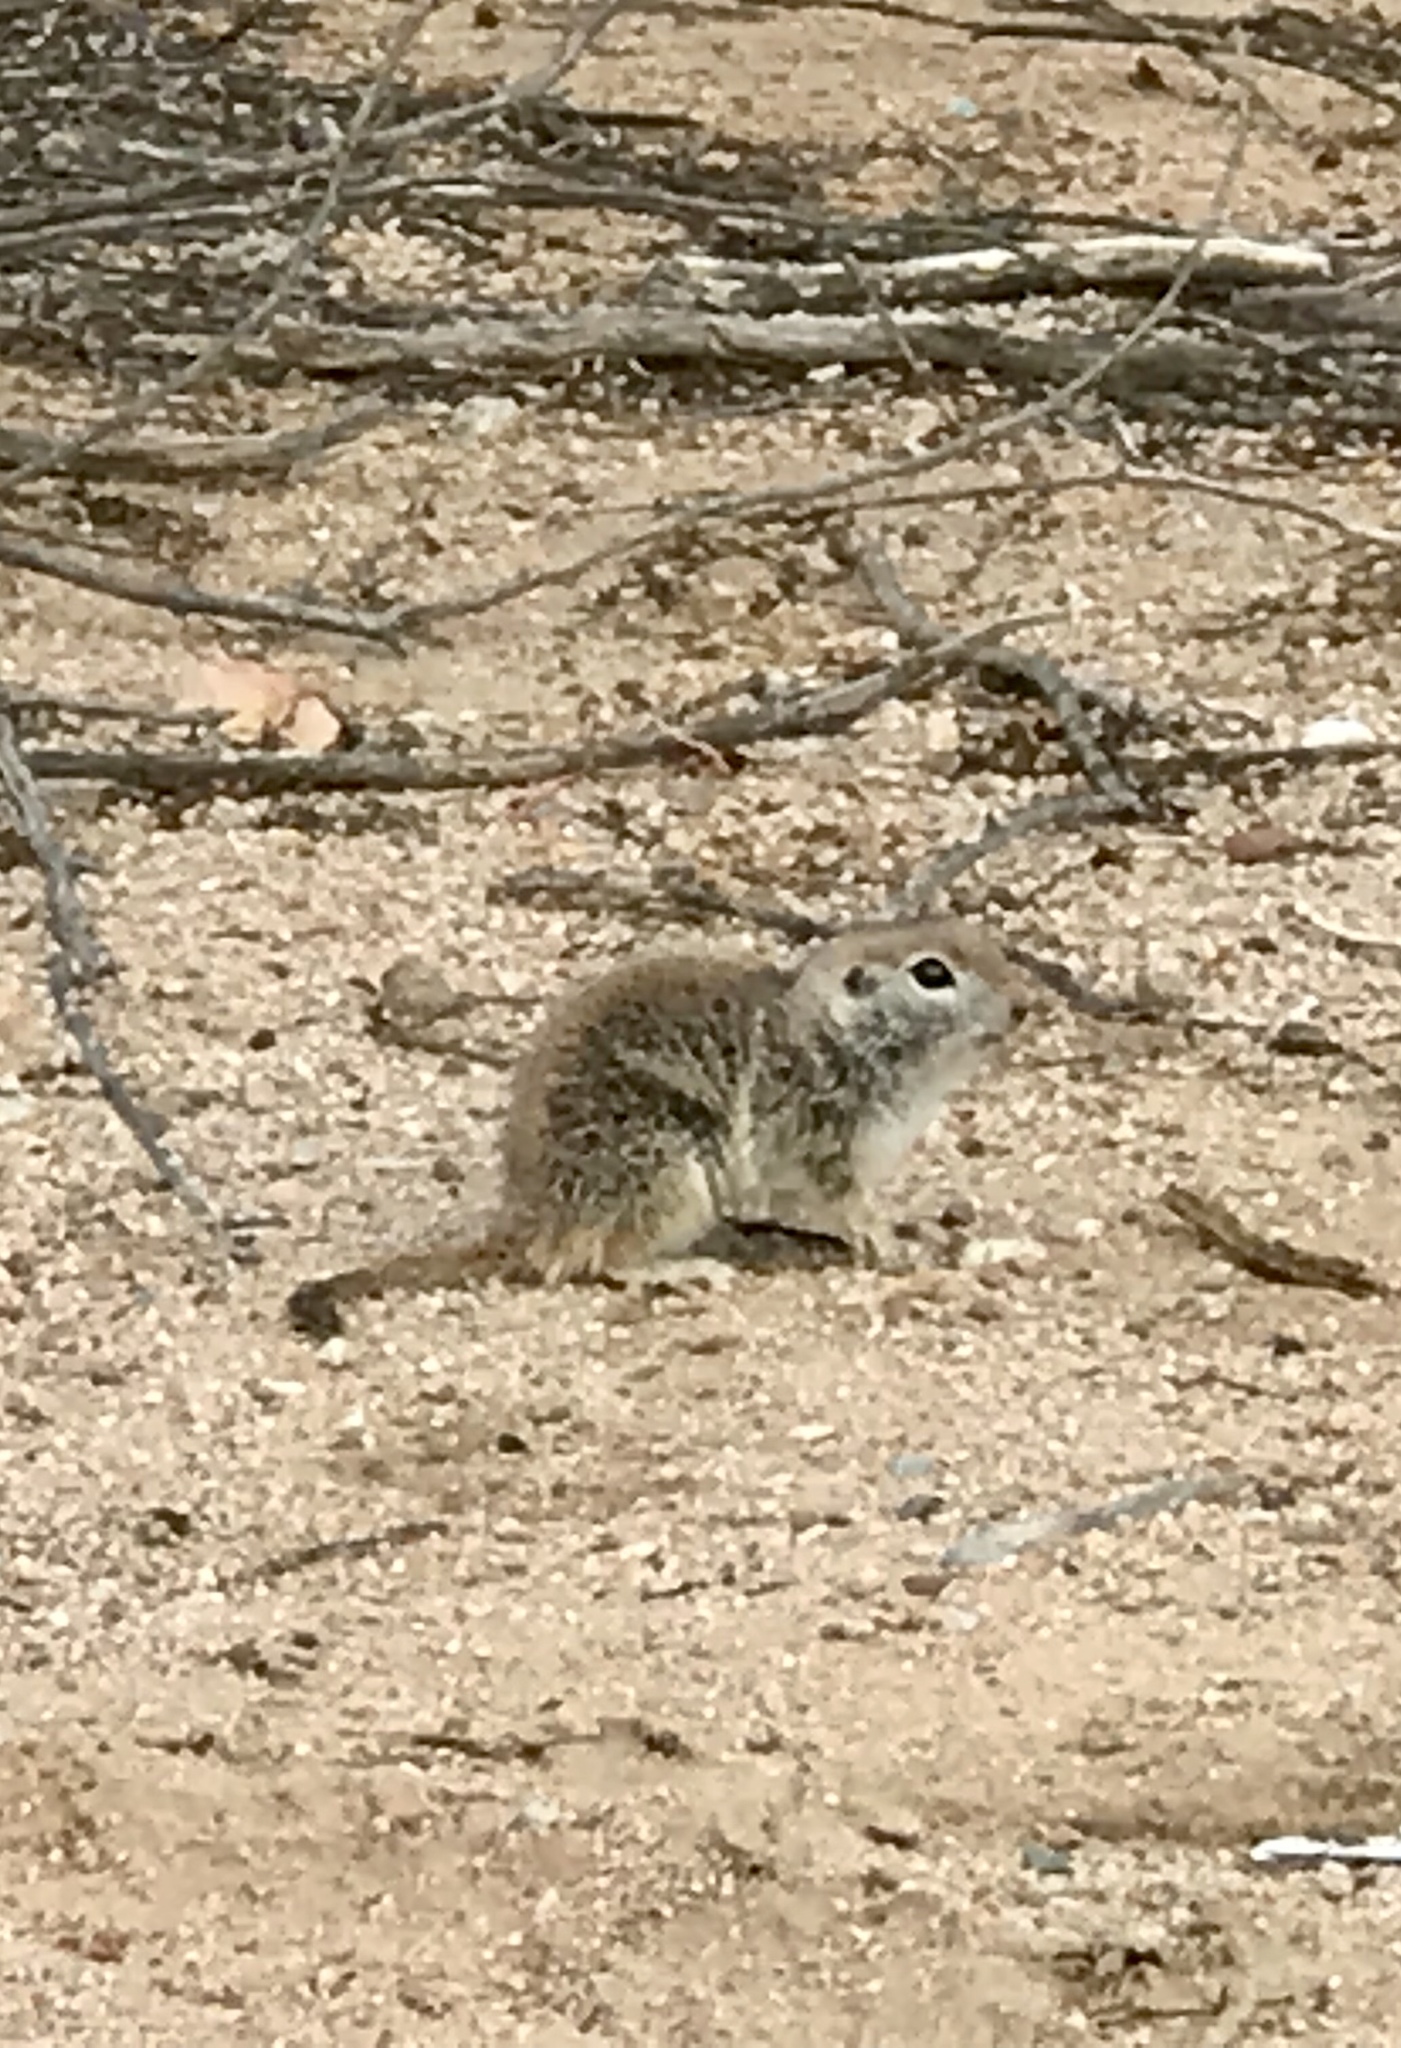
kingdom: Animalia
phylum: Chordata
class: Mammalia
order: Rodentia
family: Sciuridae
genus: Xerospermophilus
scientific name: Xerospermophilus tereticaudus
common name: Round-tailed ground squirrel
